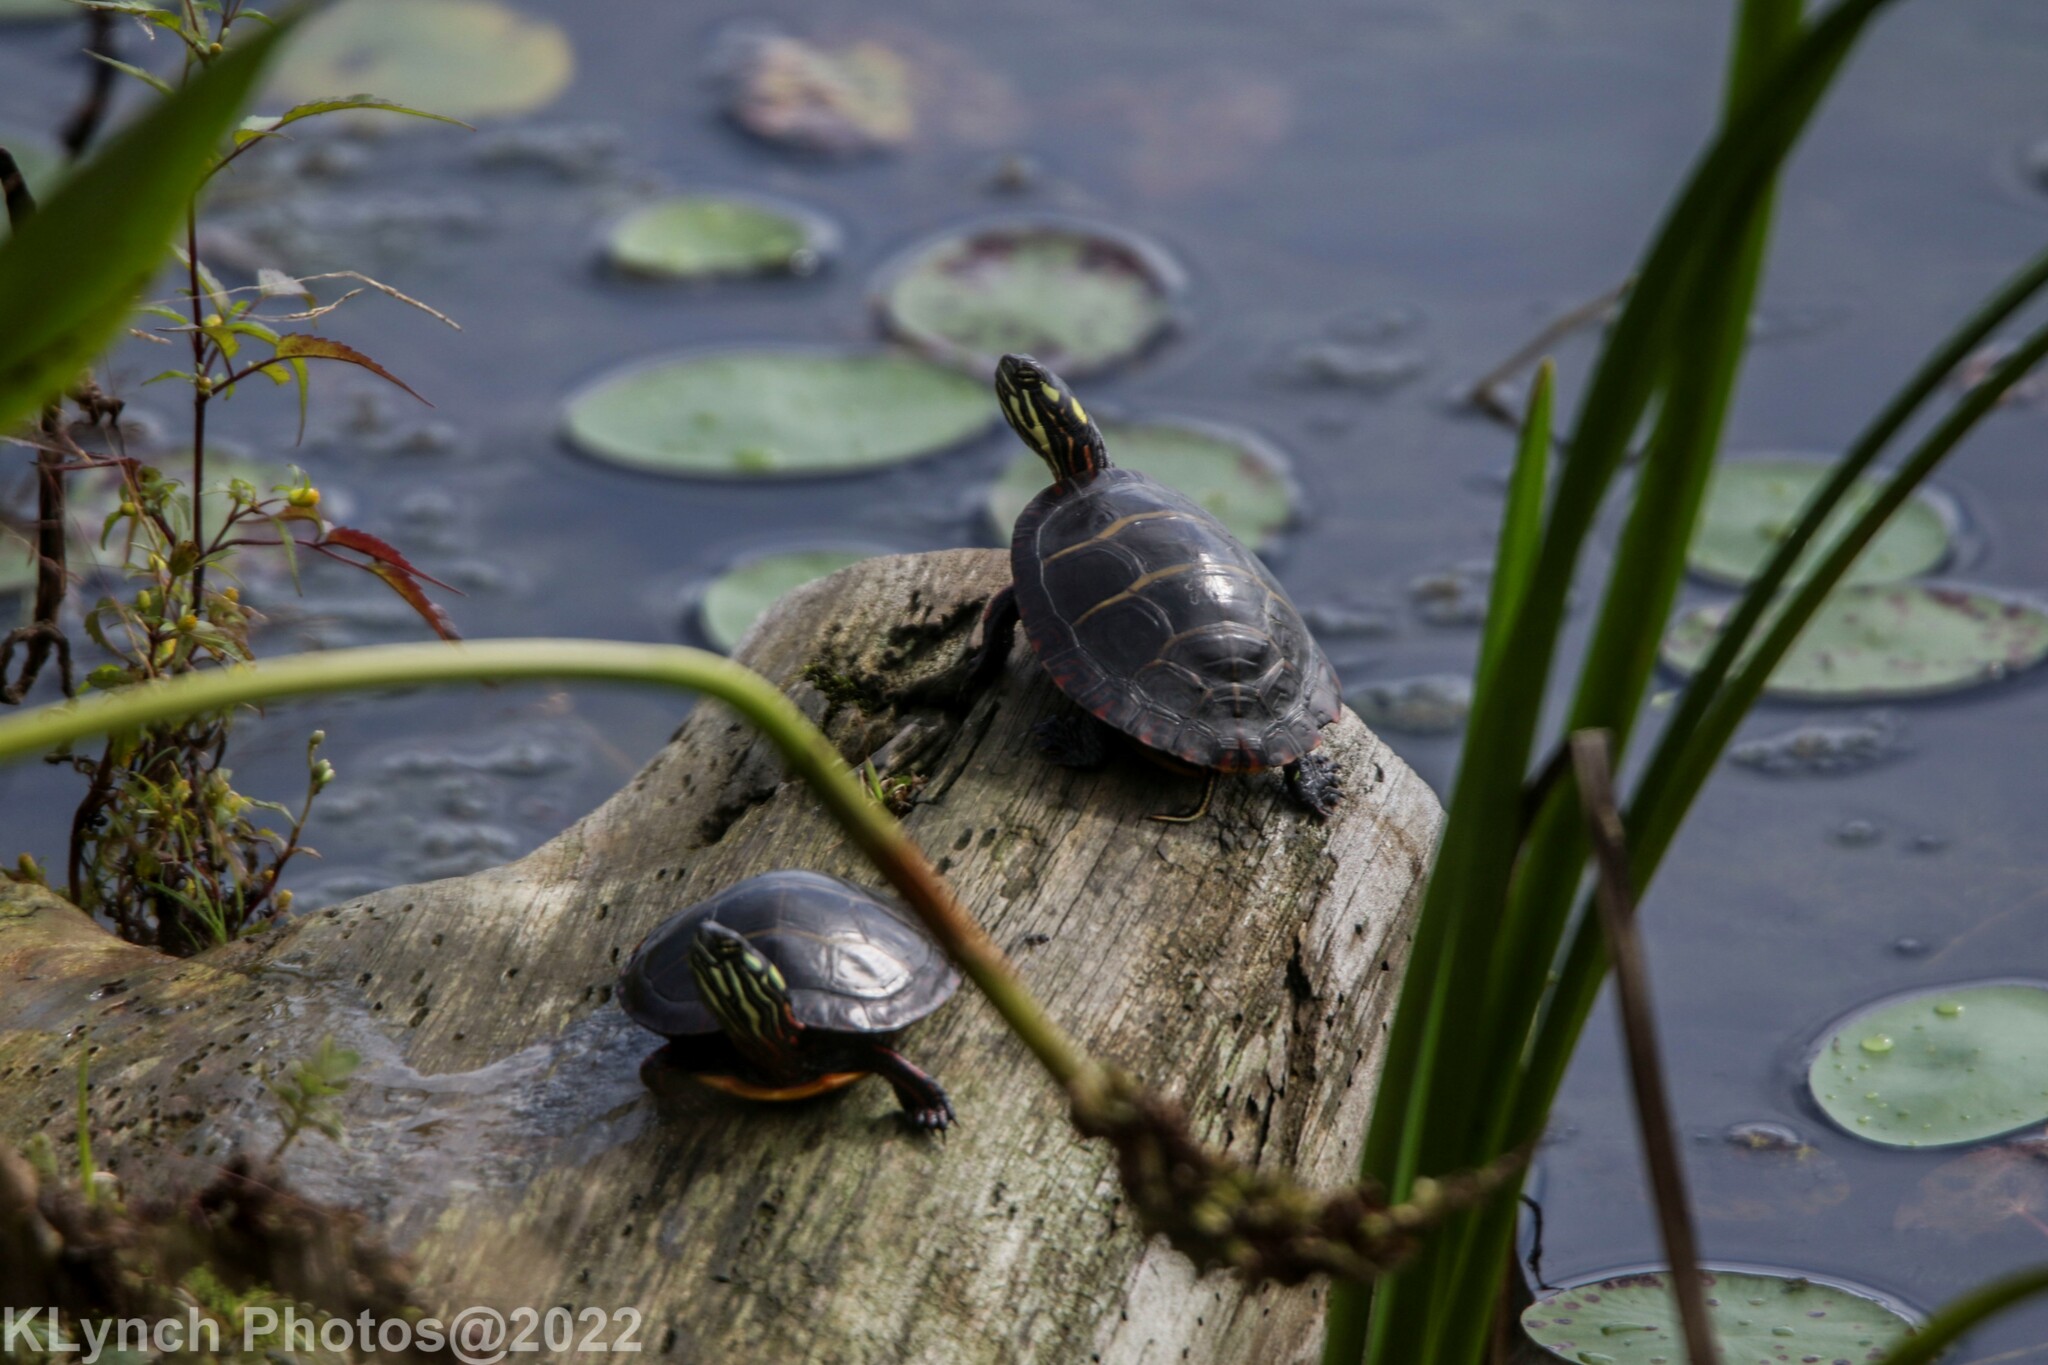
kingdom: Animalia
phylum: Chordata
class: Testudines
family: Emydidae
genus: Chrysemys
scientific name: Chrysemys picta
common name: Painted turtle
